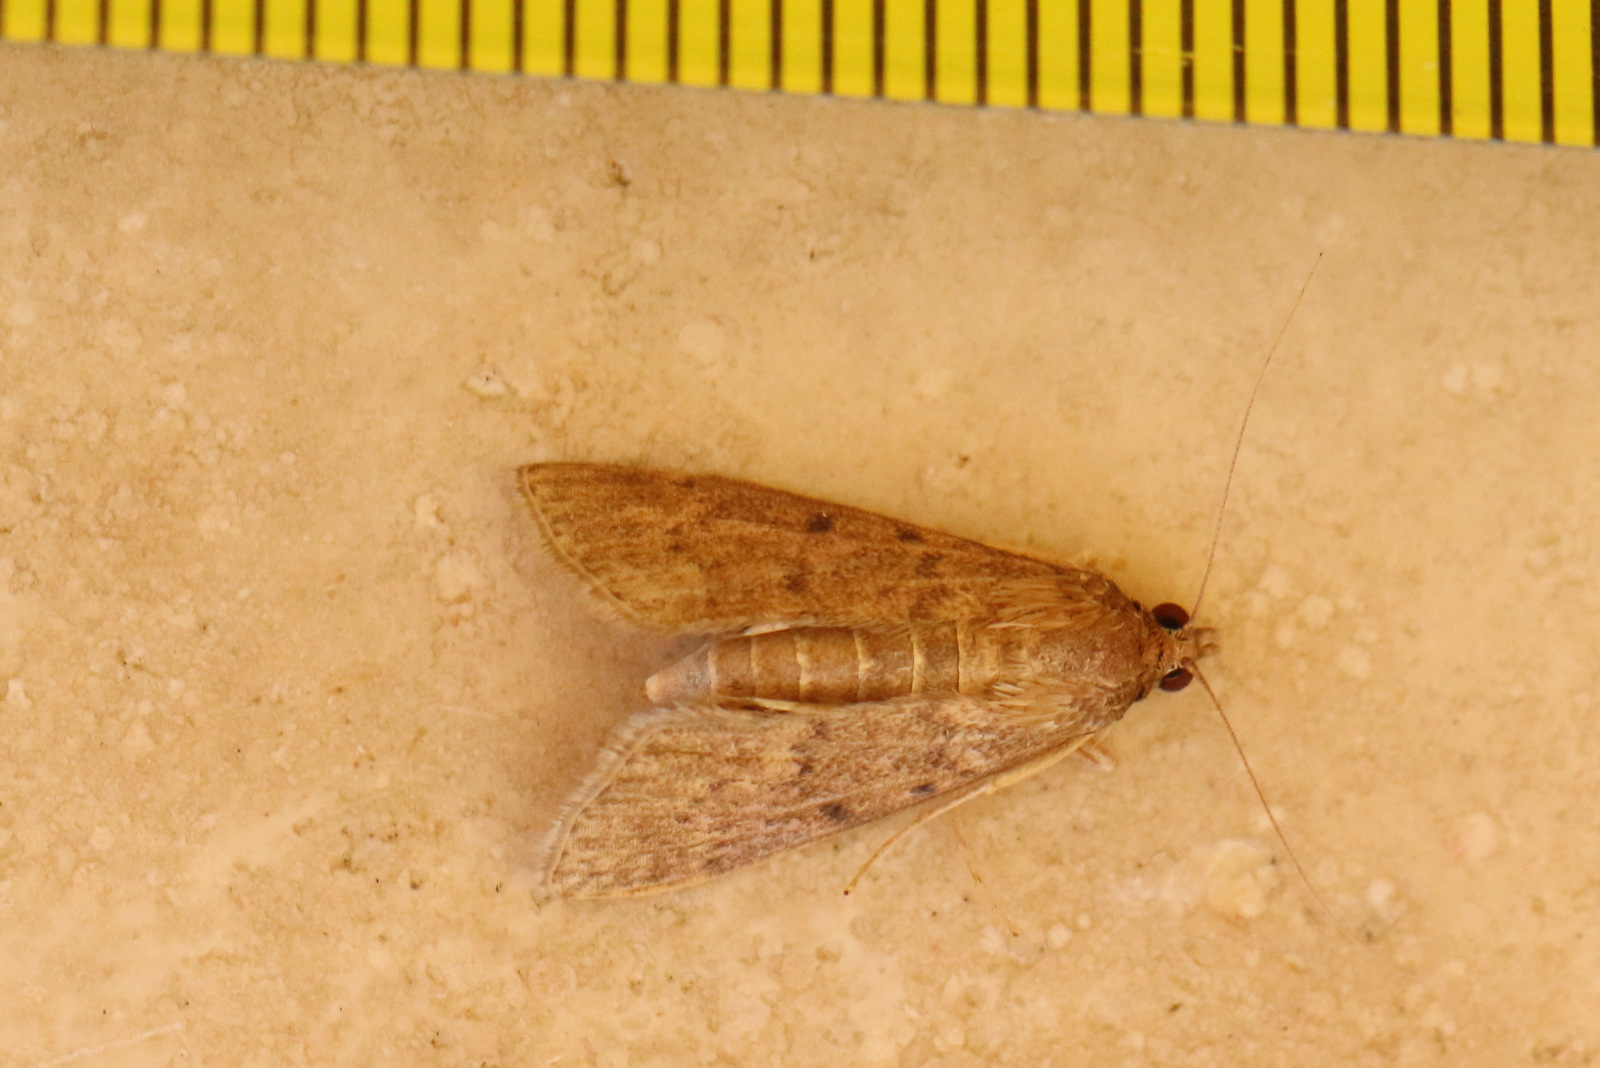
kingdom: Animalia
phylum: Arthropoda
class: Insecta
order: Lepidoptera
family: Crambidae
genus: Herpetogramma
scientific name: Herpetogramma licarsisalis
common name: Grass webworm
